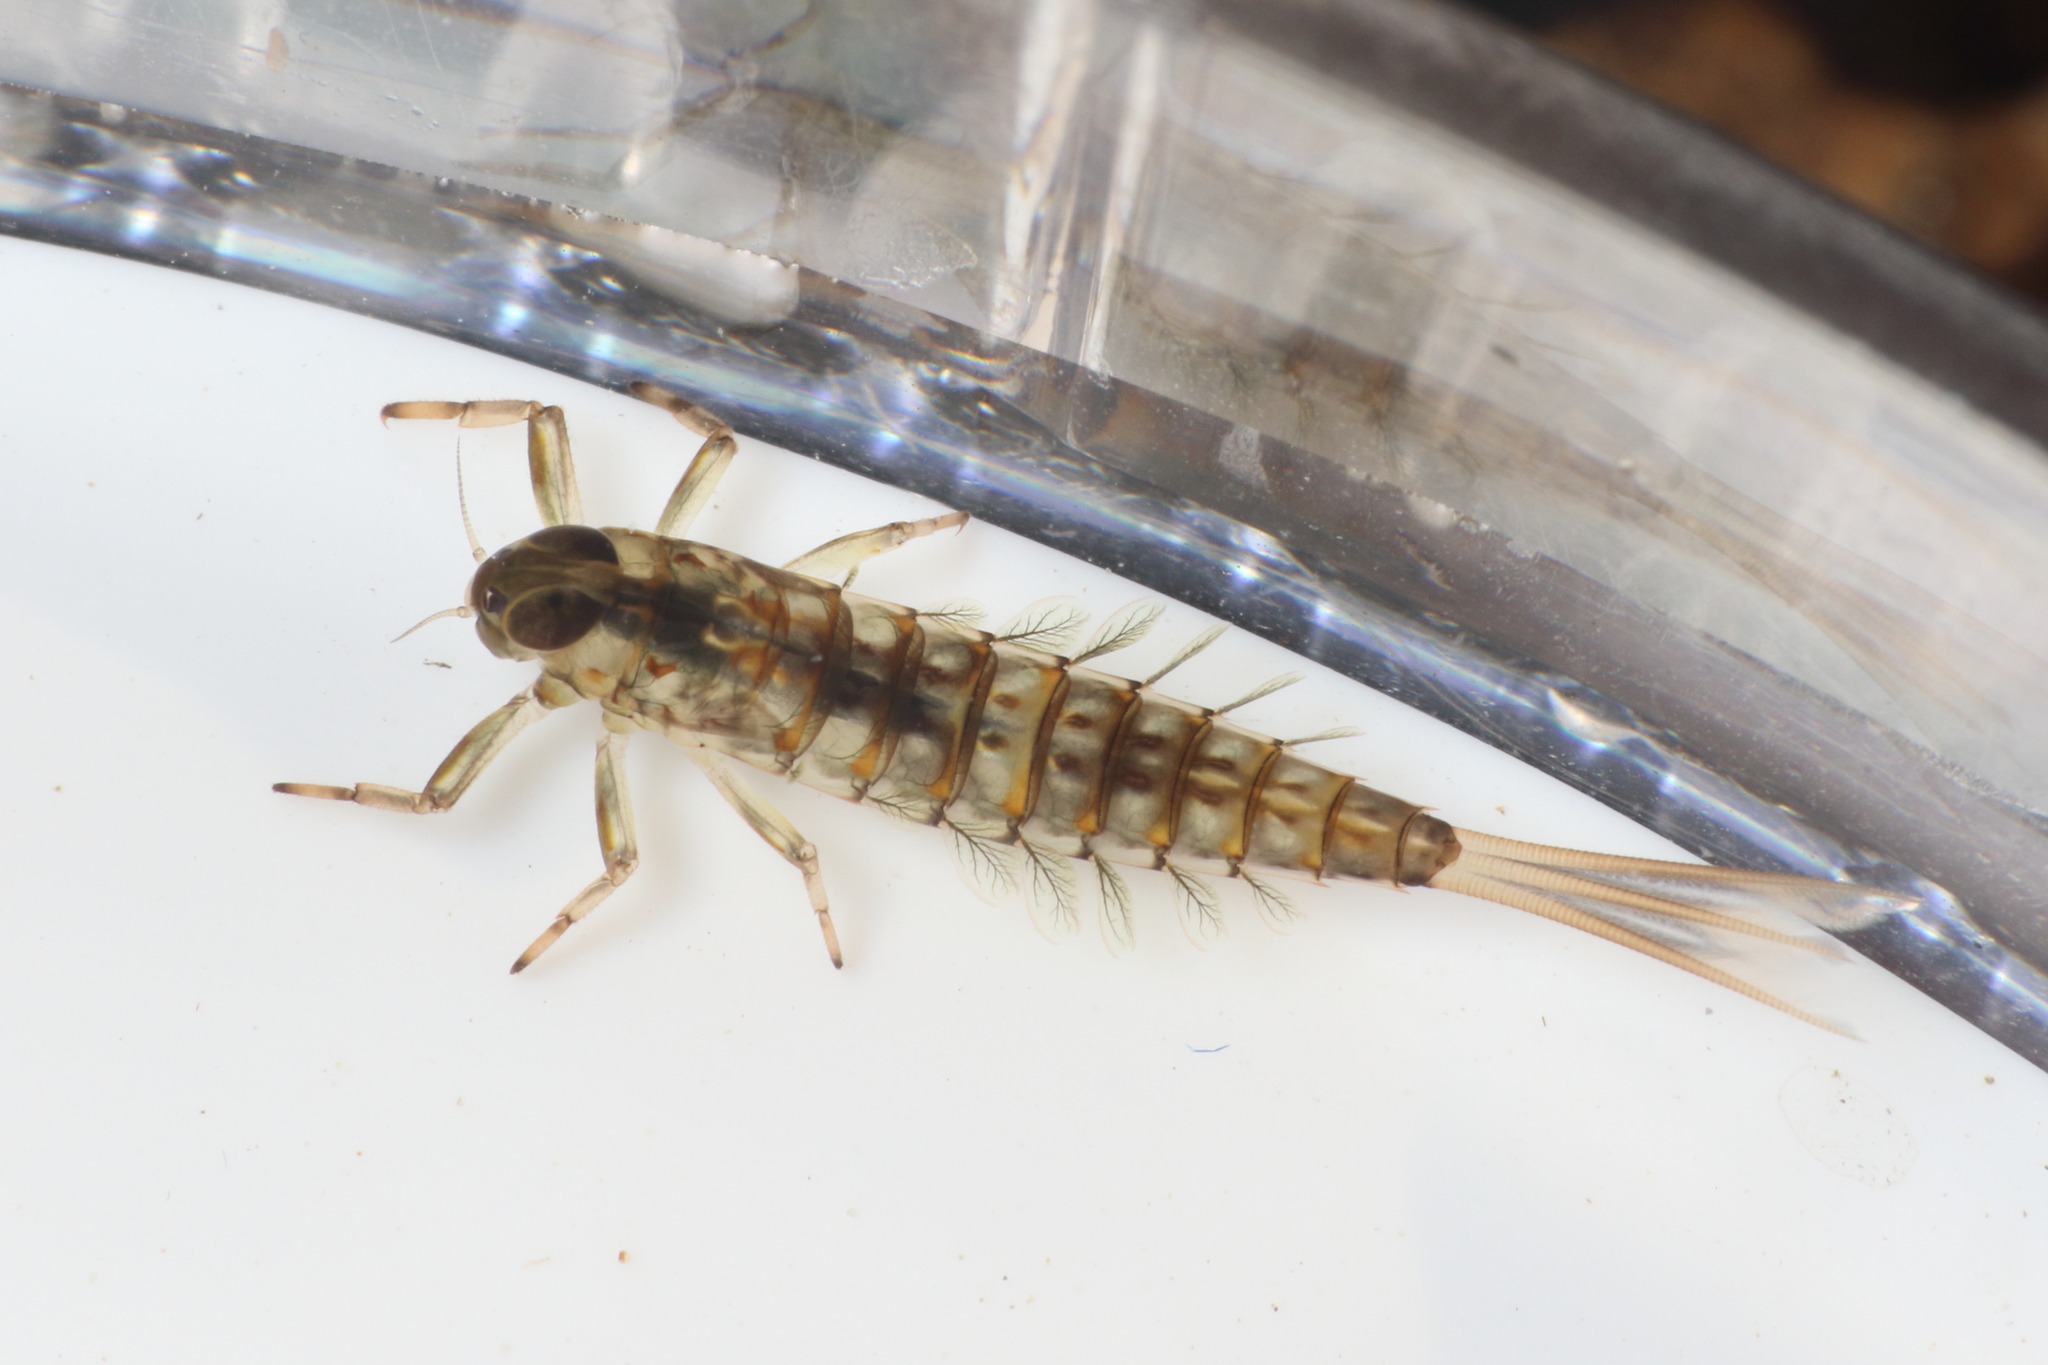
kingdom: Animalia
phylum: Arthropoda
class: Insecta
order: Ephemeroptera
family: Nesameletidae
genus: Nesameletus
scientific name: Nesameletus flavitinctus
